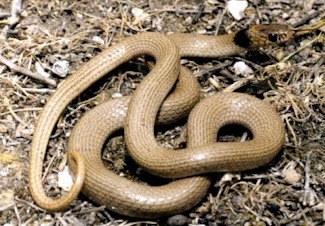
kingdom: Animalia
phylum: Chordata
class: Squamata
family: Colubridae
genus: Eirenis
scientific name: Eirenis collaris
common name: Collared dwarf racer
